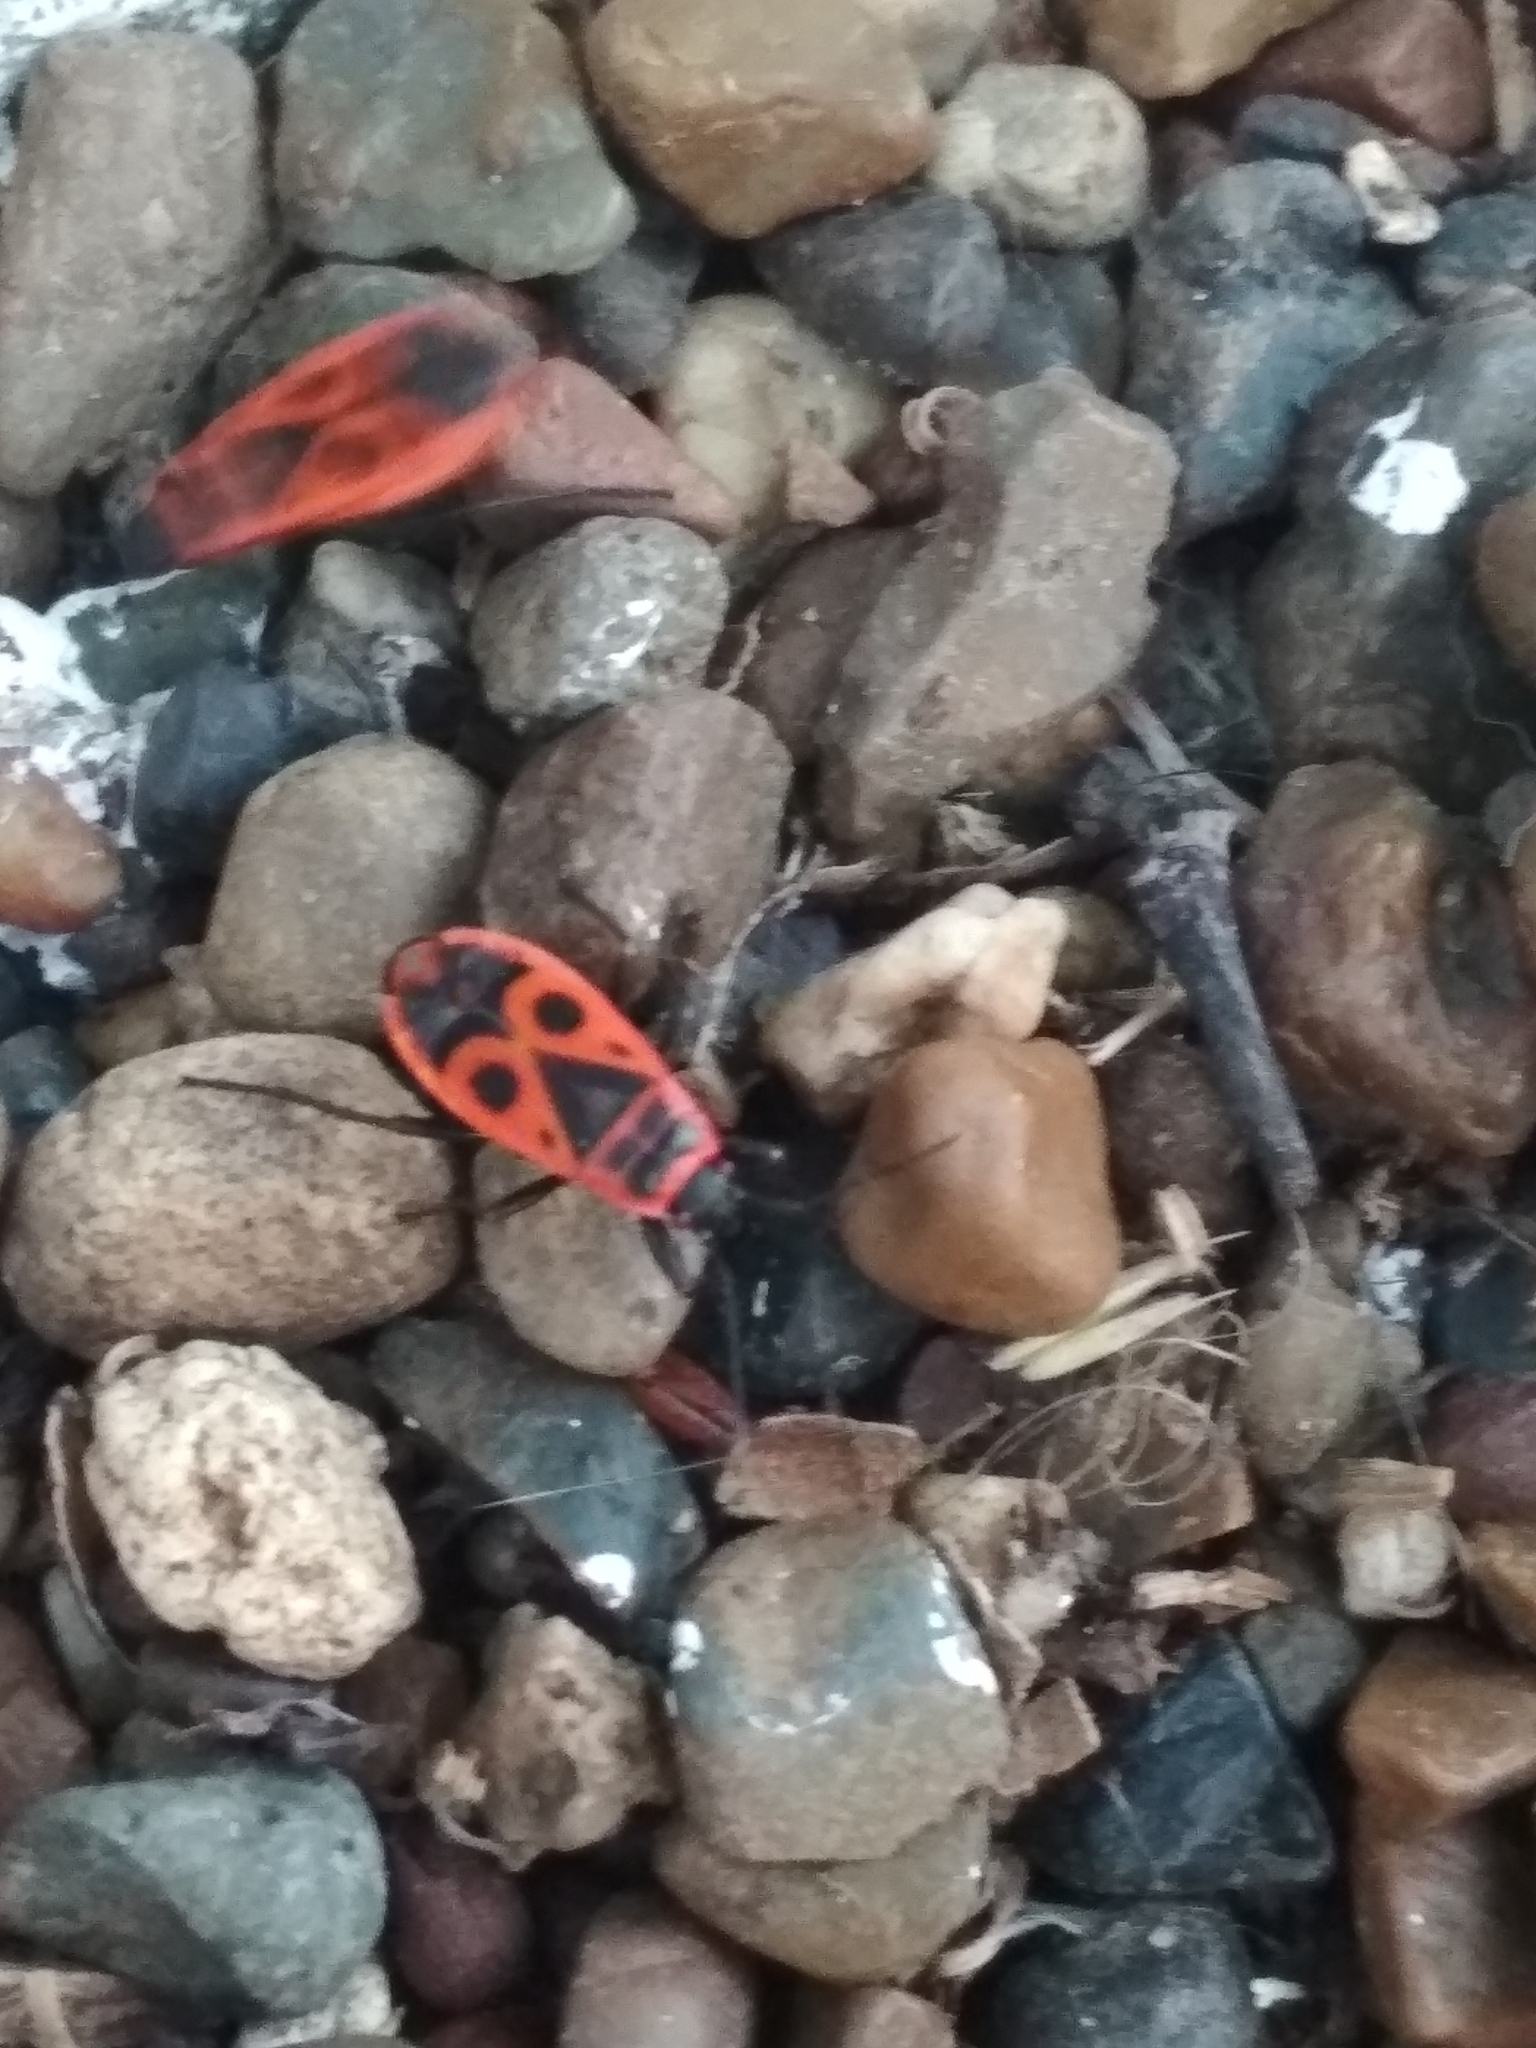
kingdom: Animalia
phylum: Arthropoda
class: Insecta
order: Hemiptera
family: Pyrrhocoridae
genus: Pyrrhocoris
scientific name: Pyrrhocoris apterus
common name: Firebug
